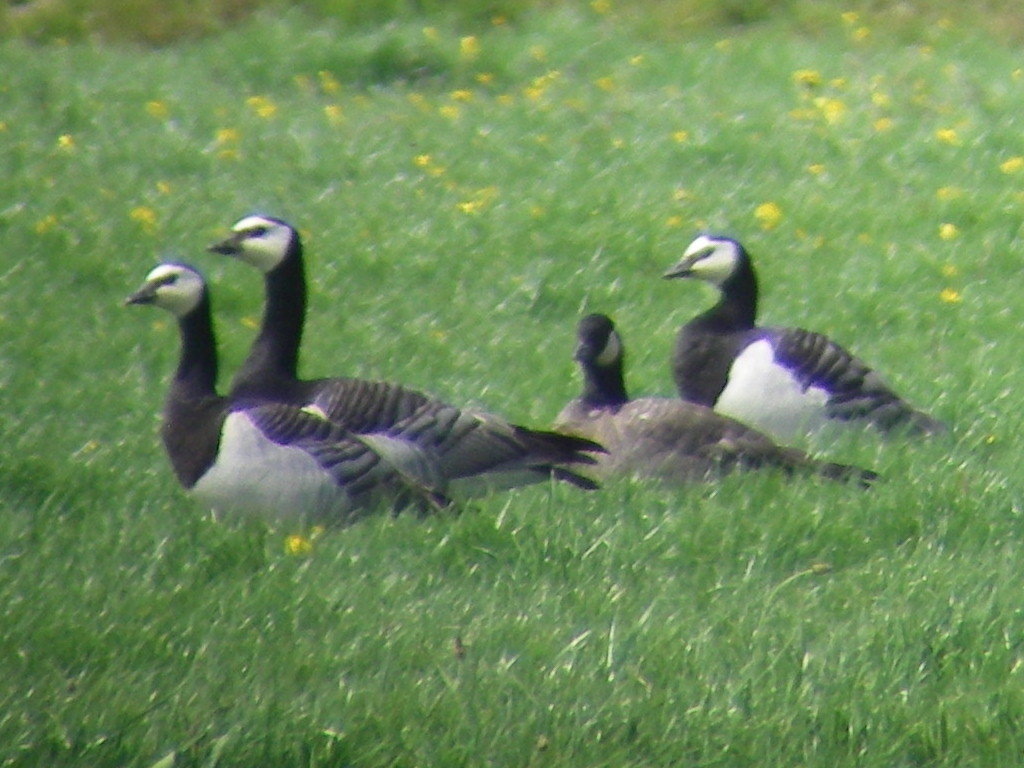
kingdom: Animalia
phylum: Chordata
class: Aves
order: Anseriformes
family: Anatidae
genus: Branta
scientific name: Branta hutchinsii
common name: Cackling goose
